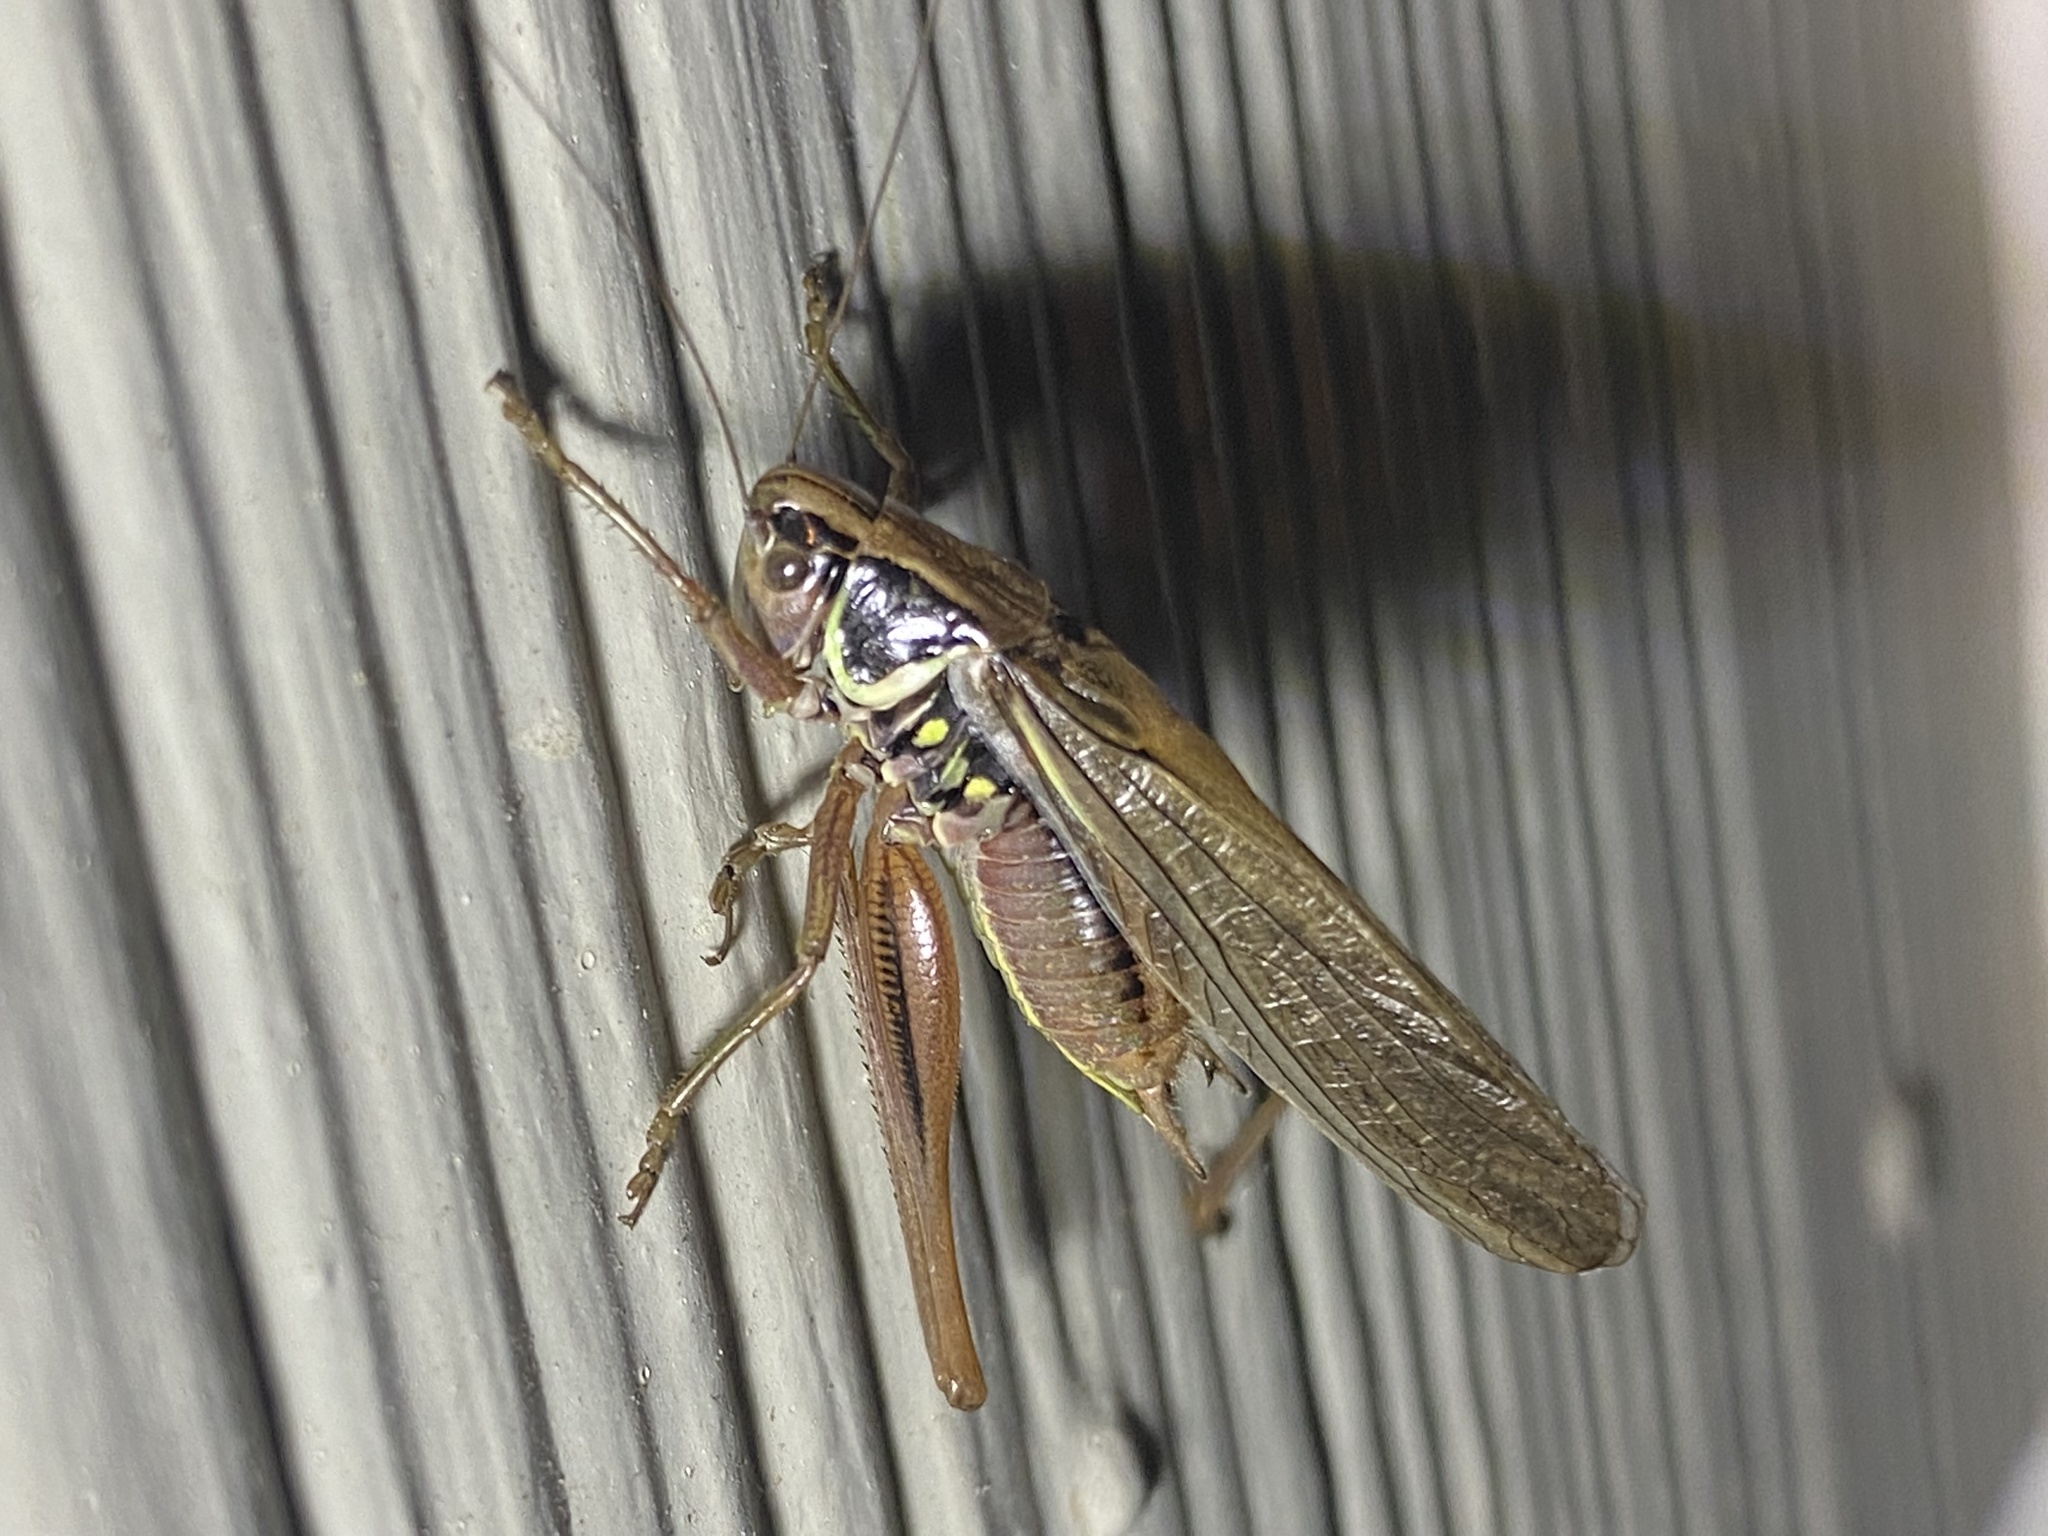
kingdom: Animalia
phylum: Arthropoda
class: Insecta
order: Orthoptera
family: Tettigoniidae
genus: Roeseliana
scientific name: Roeseliana roeselii
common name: Roesel's bush cricket
